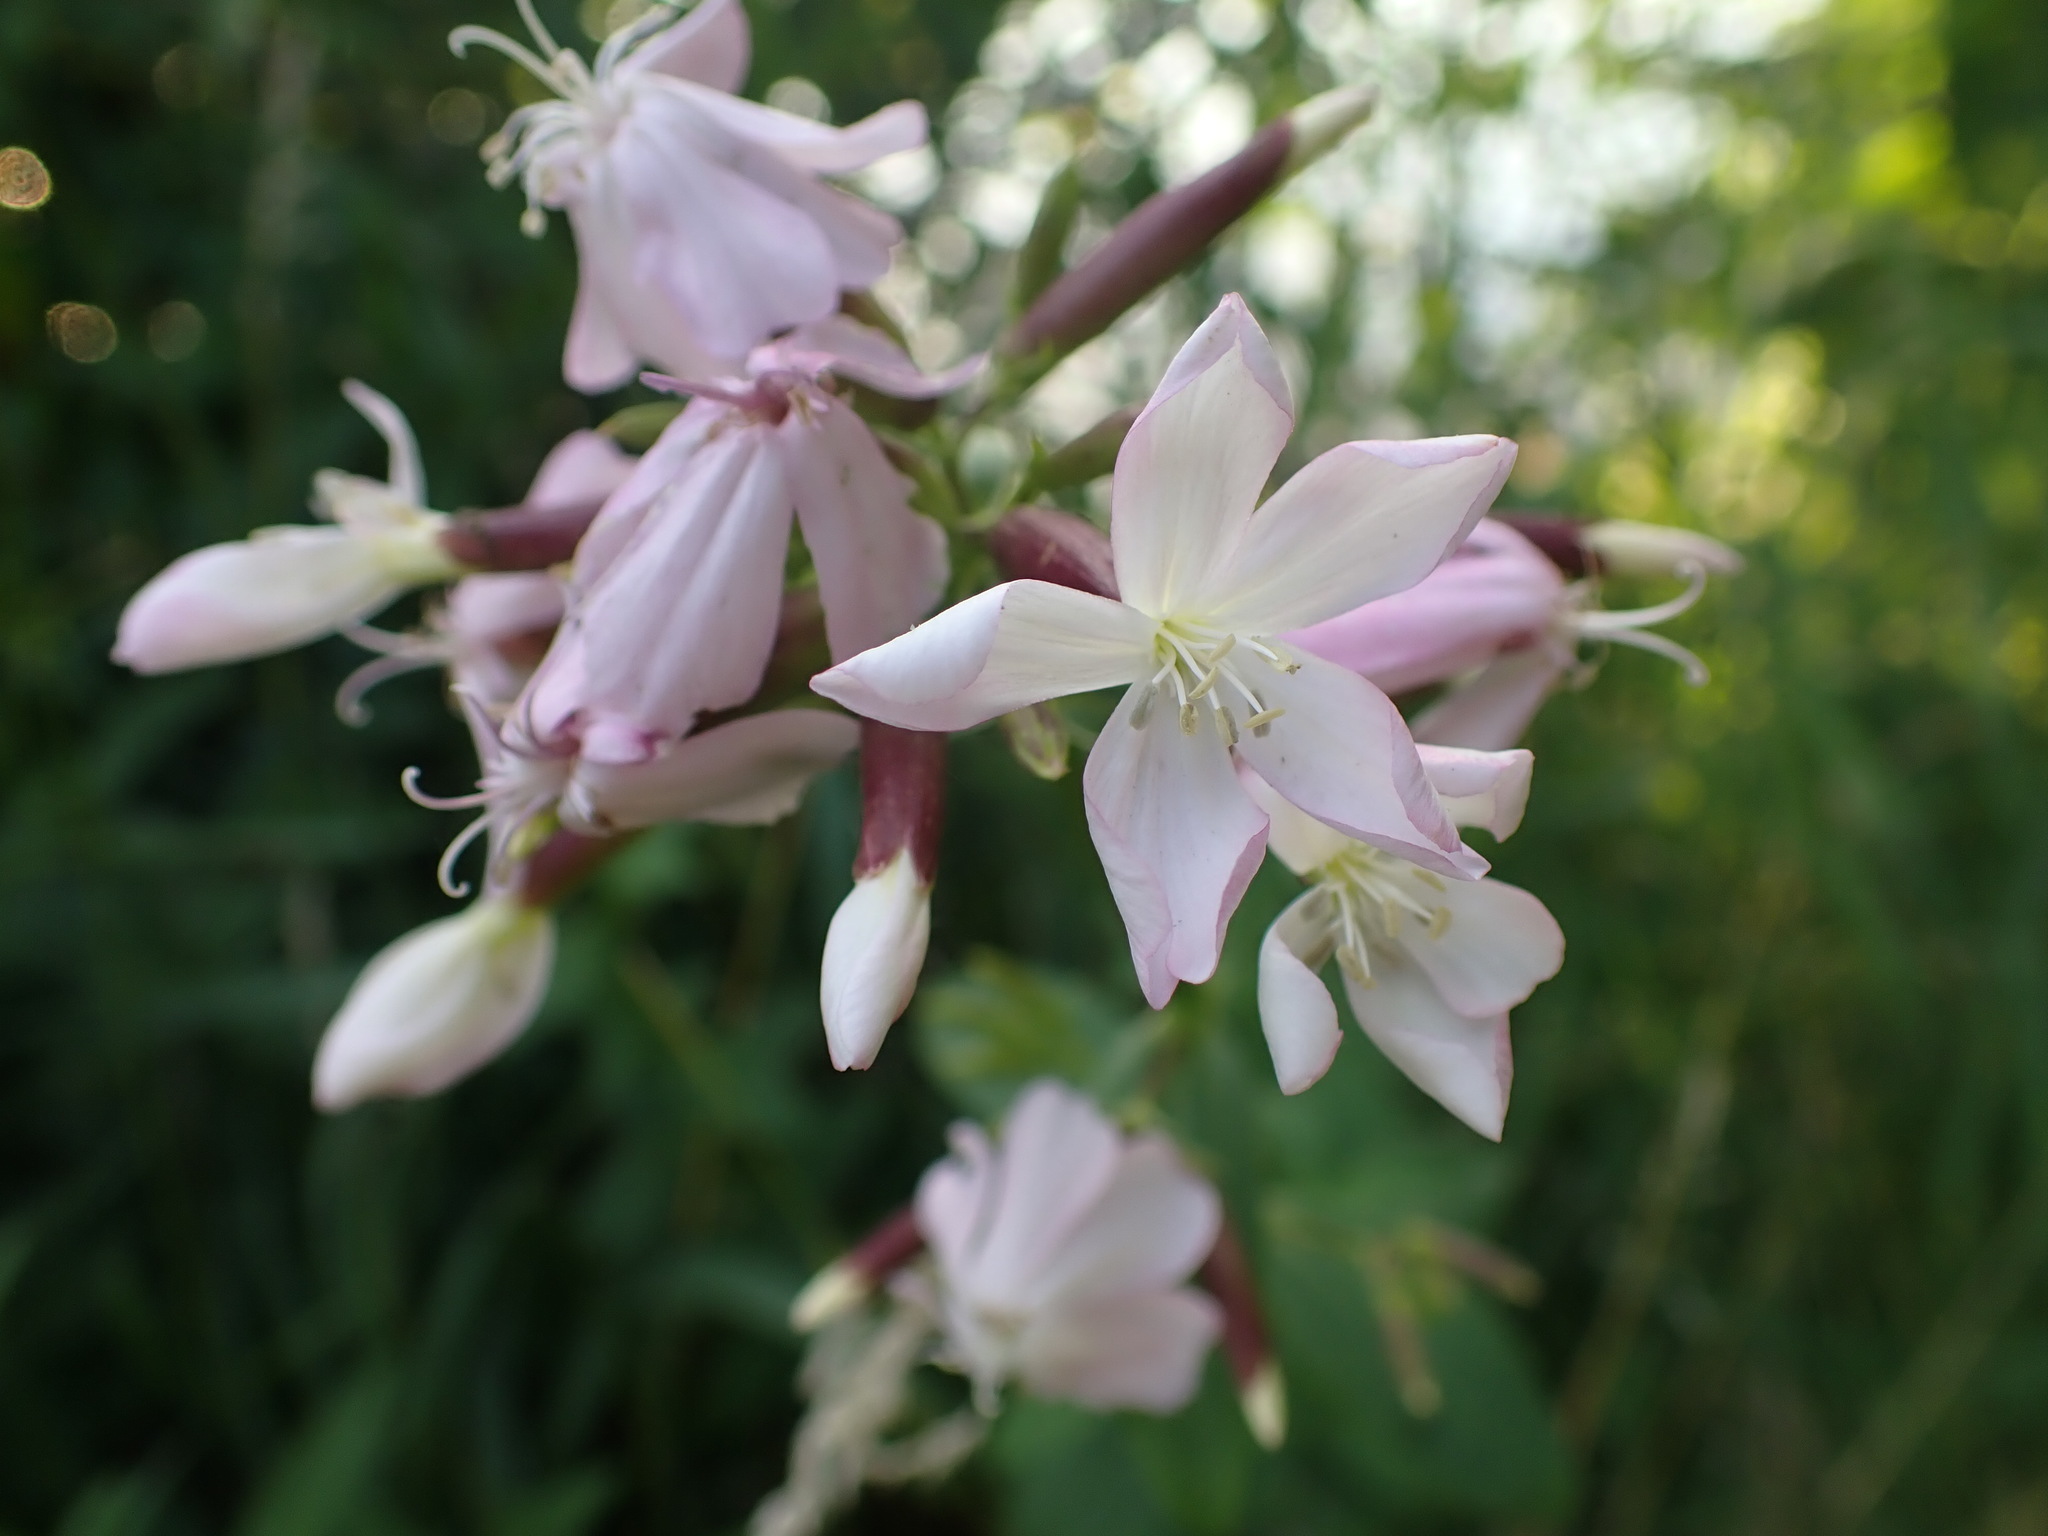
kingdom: Plantae
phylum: Tracheophyta
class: Magnoliopsida
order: Caryophyllales
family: Caryophyllaceae
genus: Saponaria
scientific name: Saponaria officinalis
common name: Soapwort
